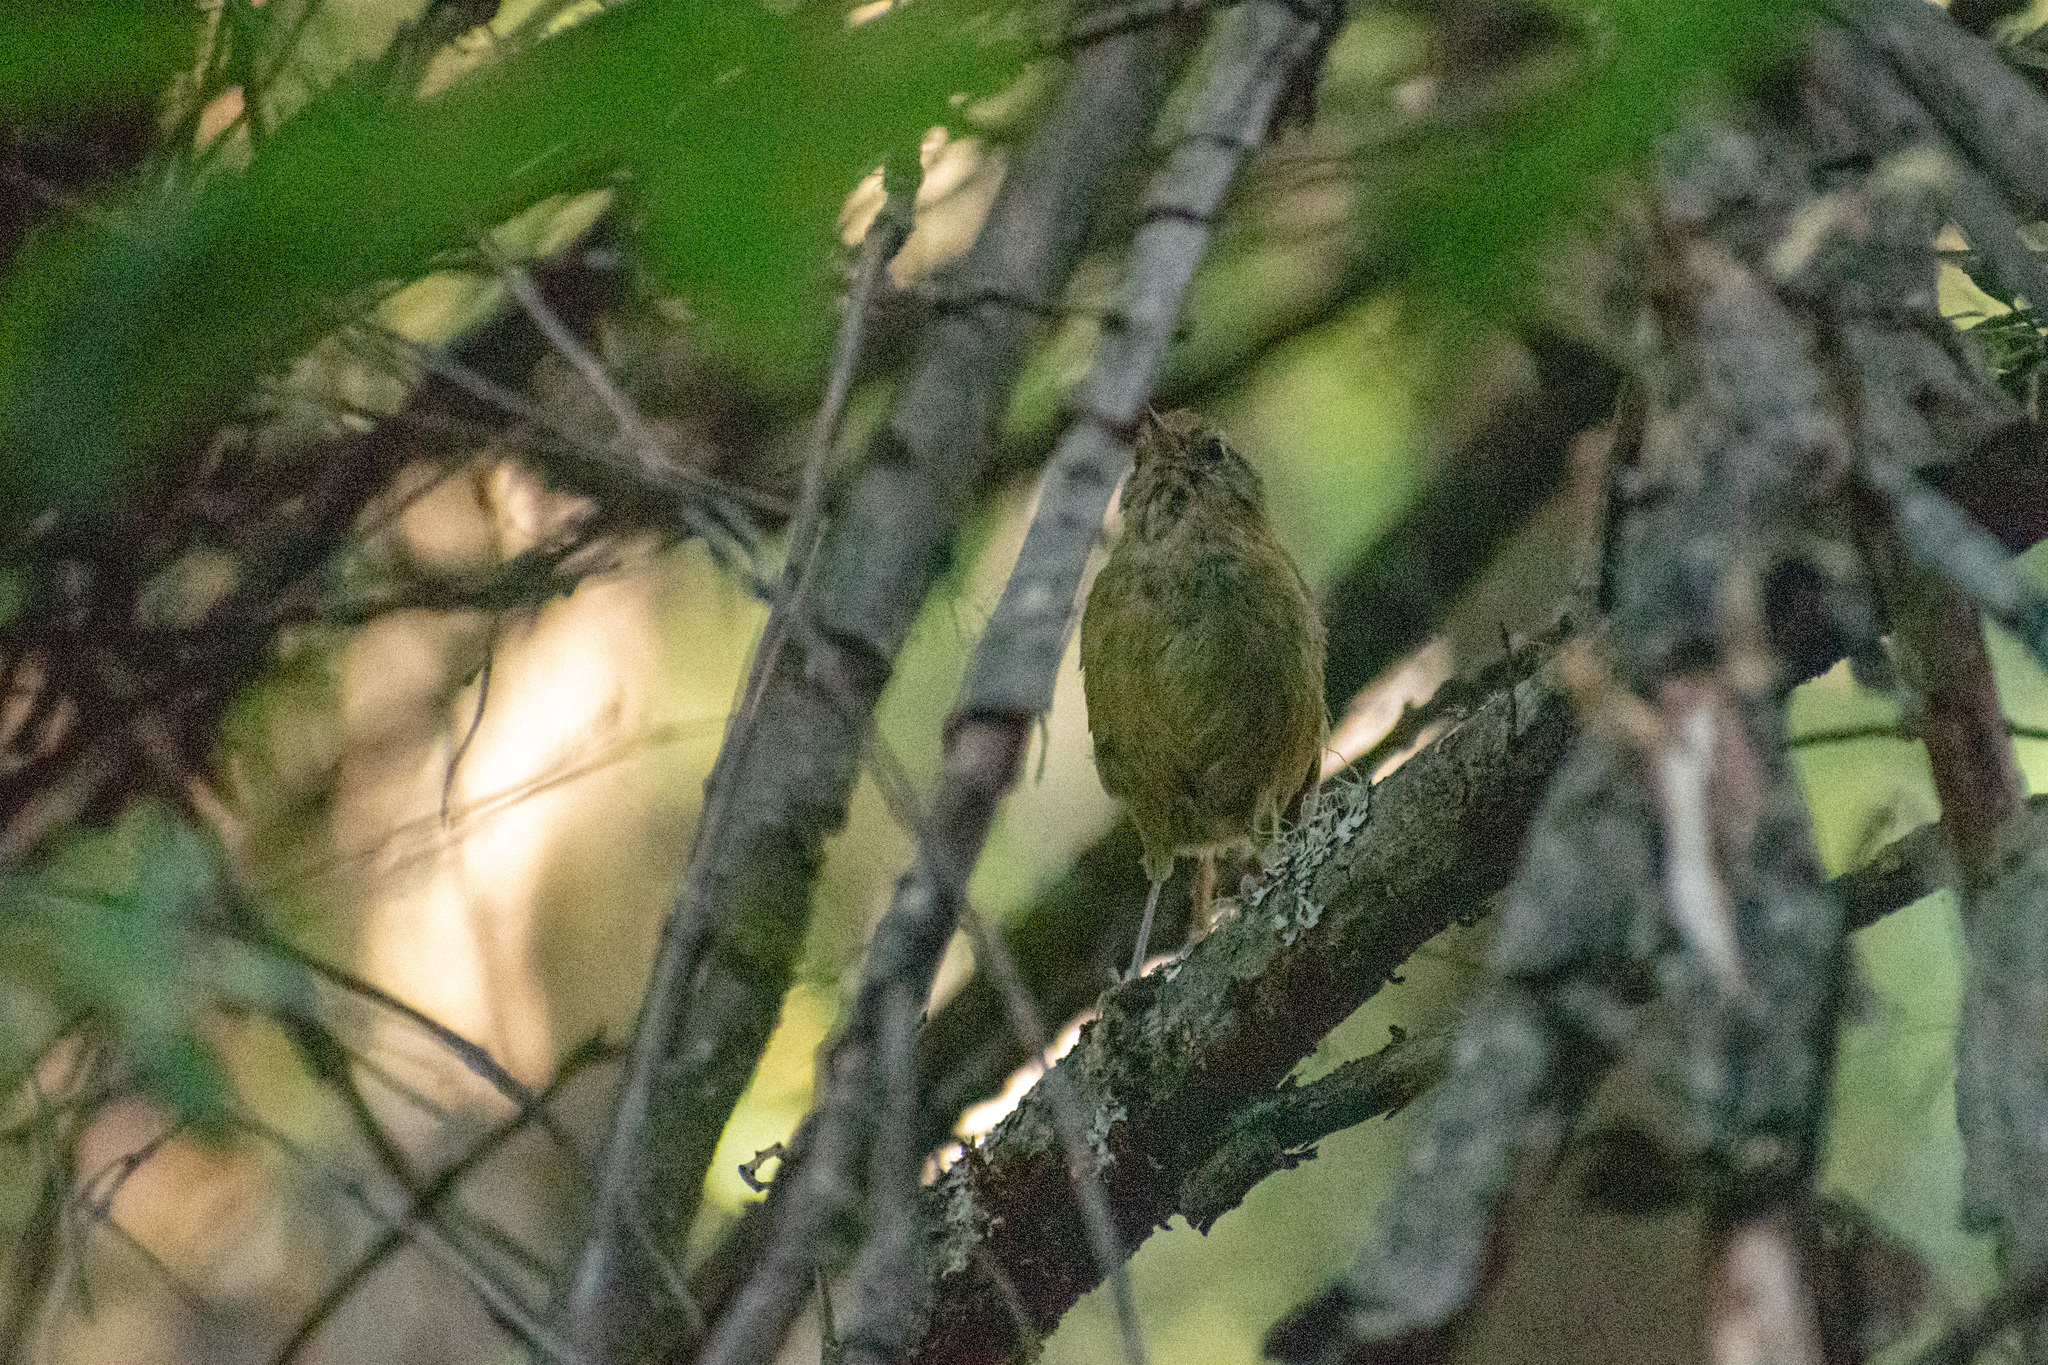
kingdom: Animalia
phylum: Chordata
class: Aves
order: Passeriformes
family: Furnariidae
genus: Sylviorthorhynchus
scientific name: Sylviorthorhynchus desmursii
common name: Des murs's wiretail
